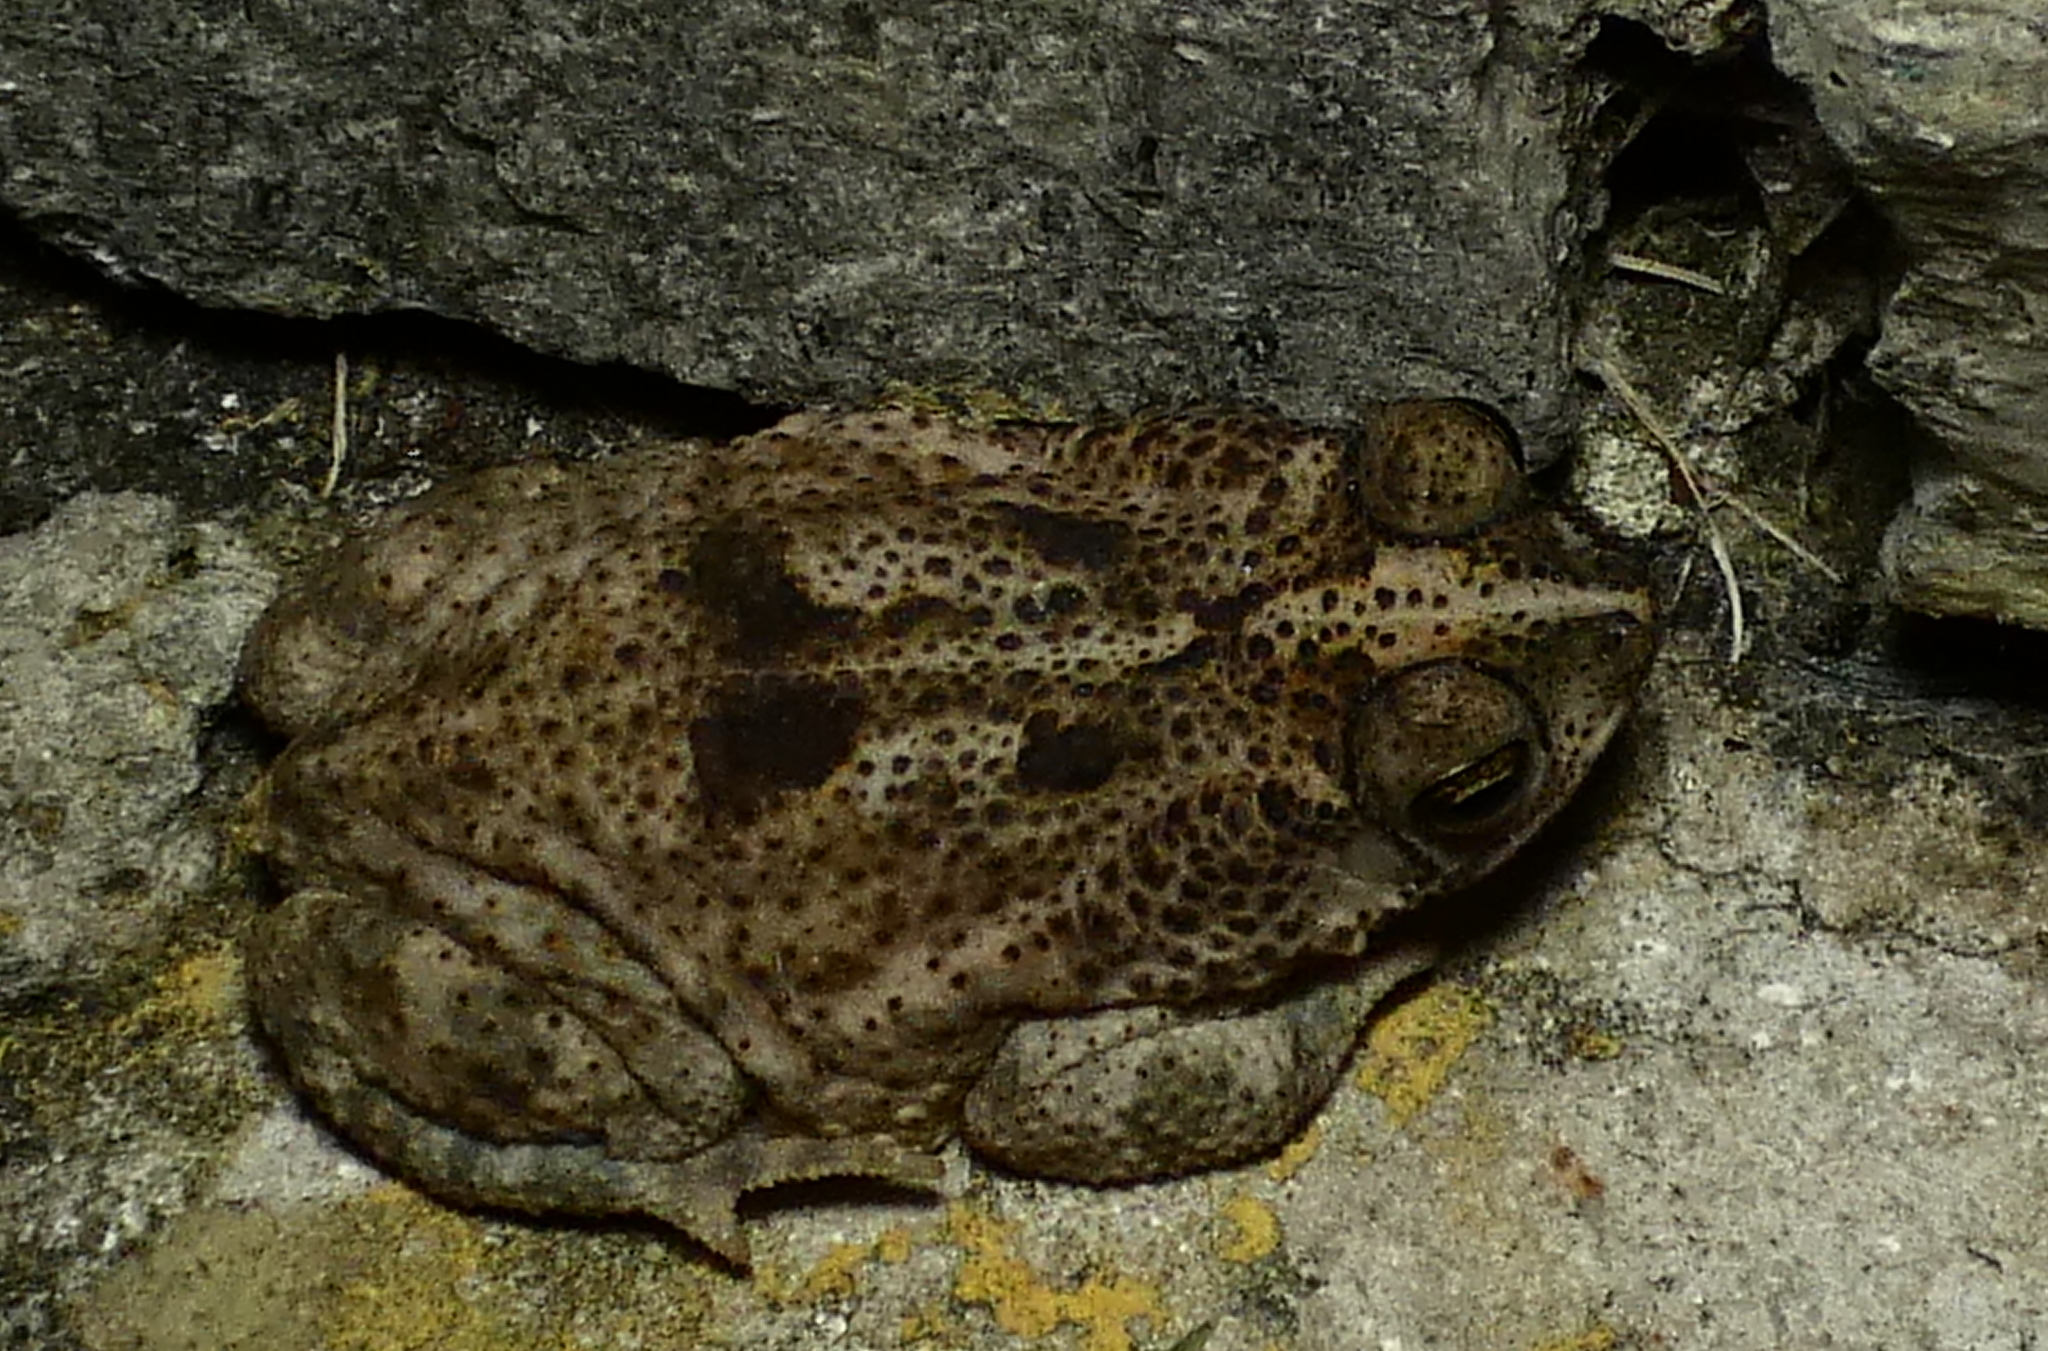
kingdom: Animalia
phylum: Chordata
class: Amphibia
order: Anura
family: Bufonidae
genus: Rhinella
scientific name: Rhinella granulosa
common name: Common lesser toad
